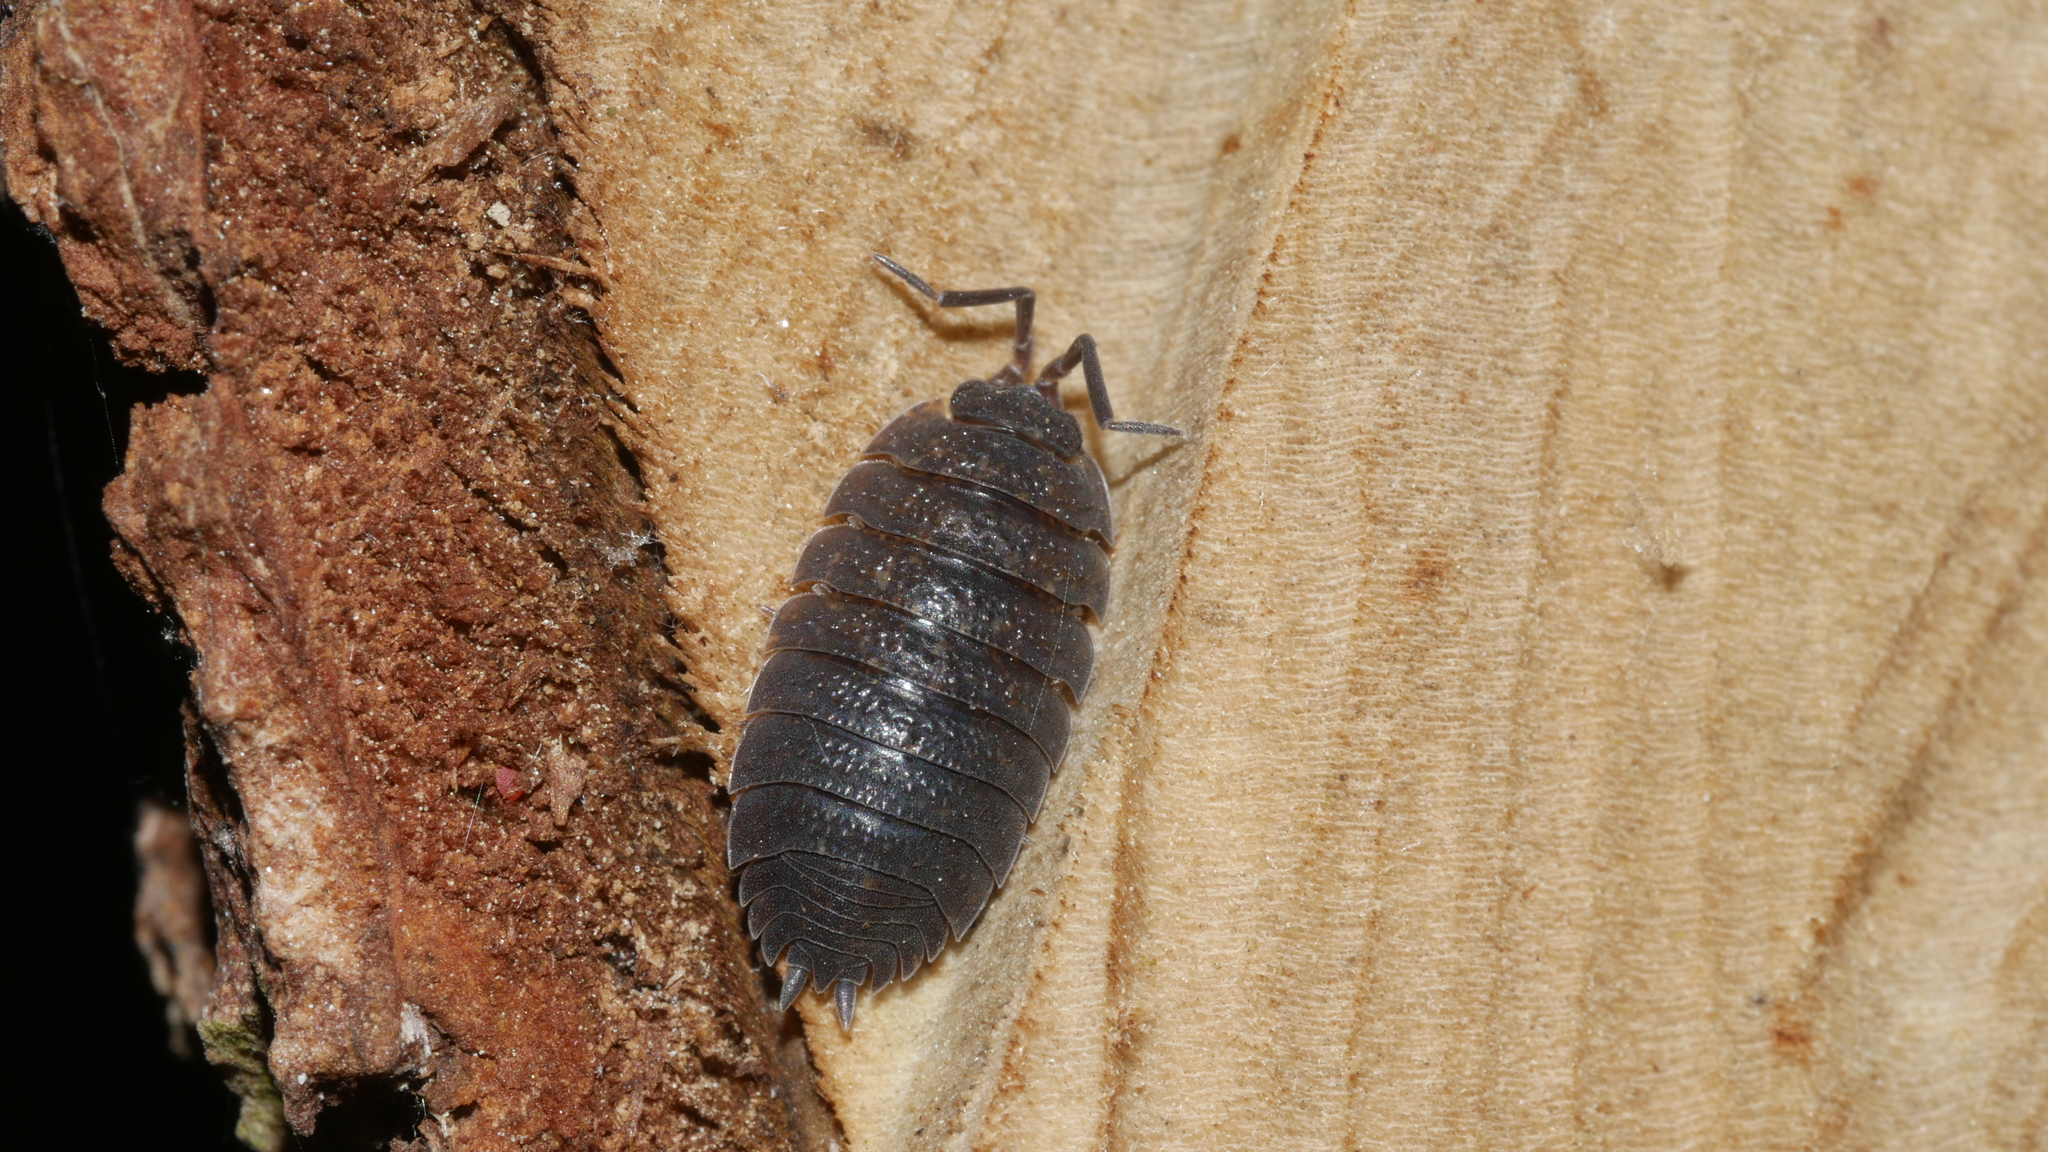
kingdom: Animalia
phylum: Arthropoda
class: Malacostraca
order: Isopoda
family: Porcellionidae
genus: Porcellio
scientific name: Porcellio scaber
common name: Common rough woodlouse
